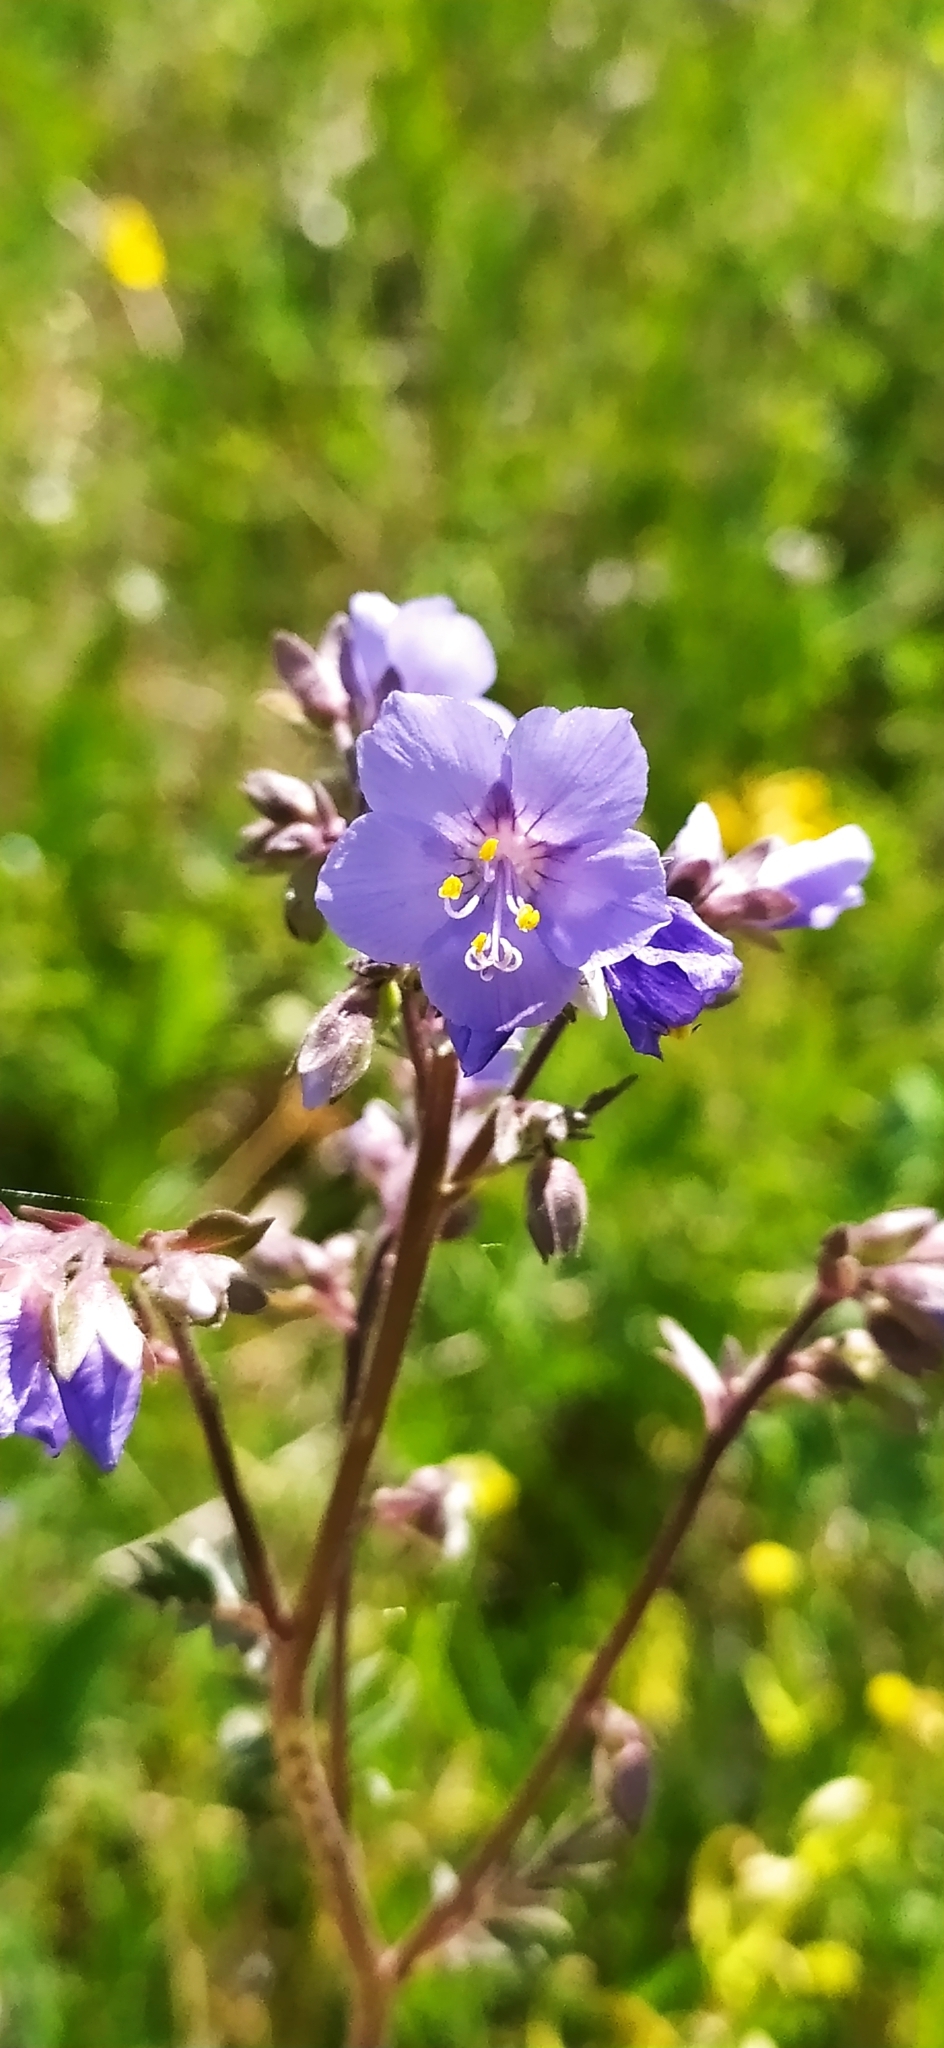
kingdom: Plantae
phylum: Tracheophyta
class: Magnoliopsida
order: Ericales
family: Polemoniaceae
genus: Polemonium
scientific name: Polemonium caeruleum
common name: Jacob's-ladder
